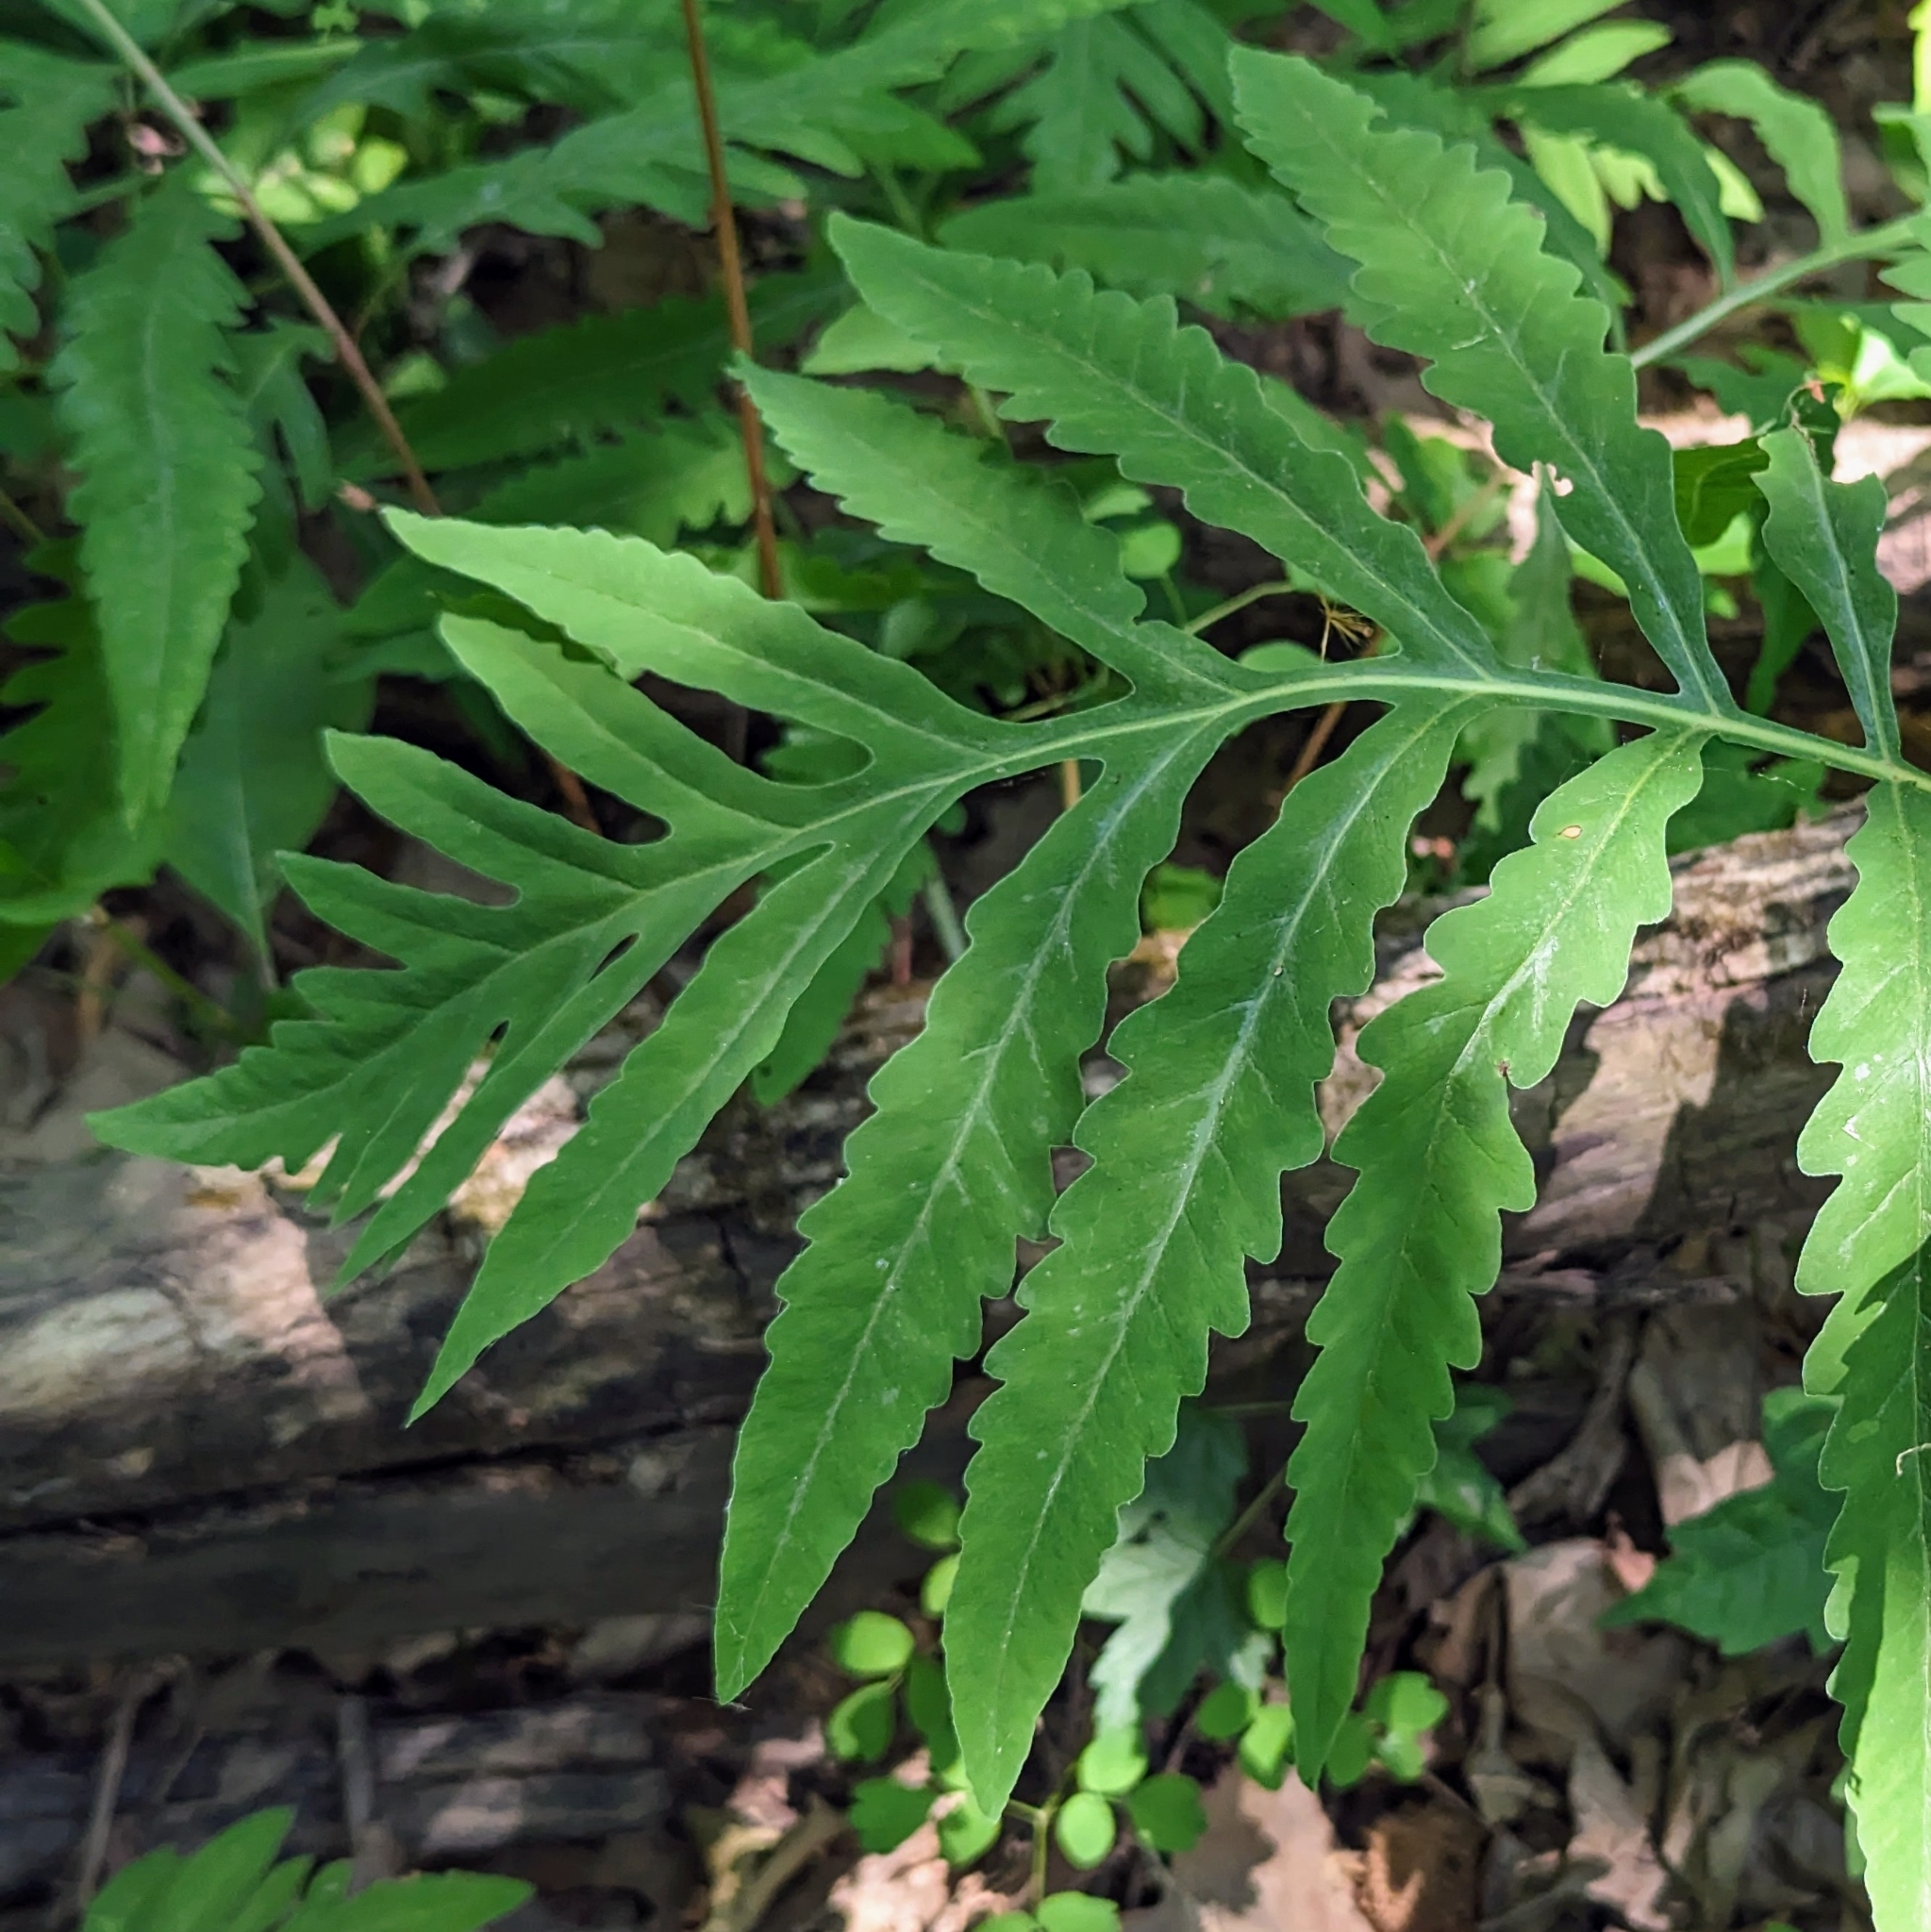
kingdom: Plantae
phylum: Tracheophyta
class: Polypodiopsida
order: Polypodiales
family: Onocleaceae
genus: Onoclea
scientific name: Onoclea sensibilis
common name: Sensitive fern
